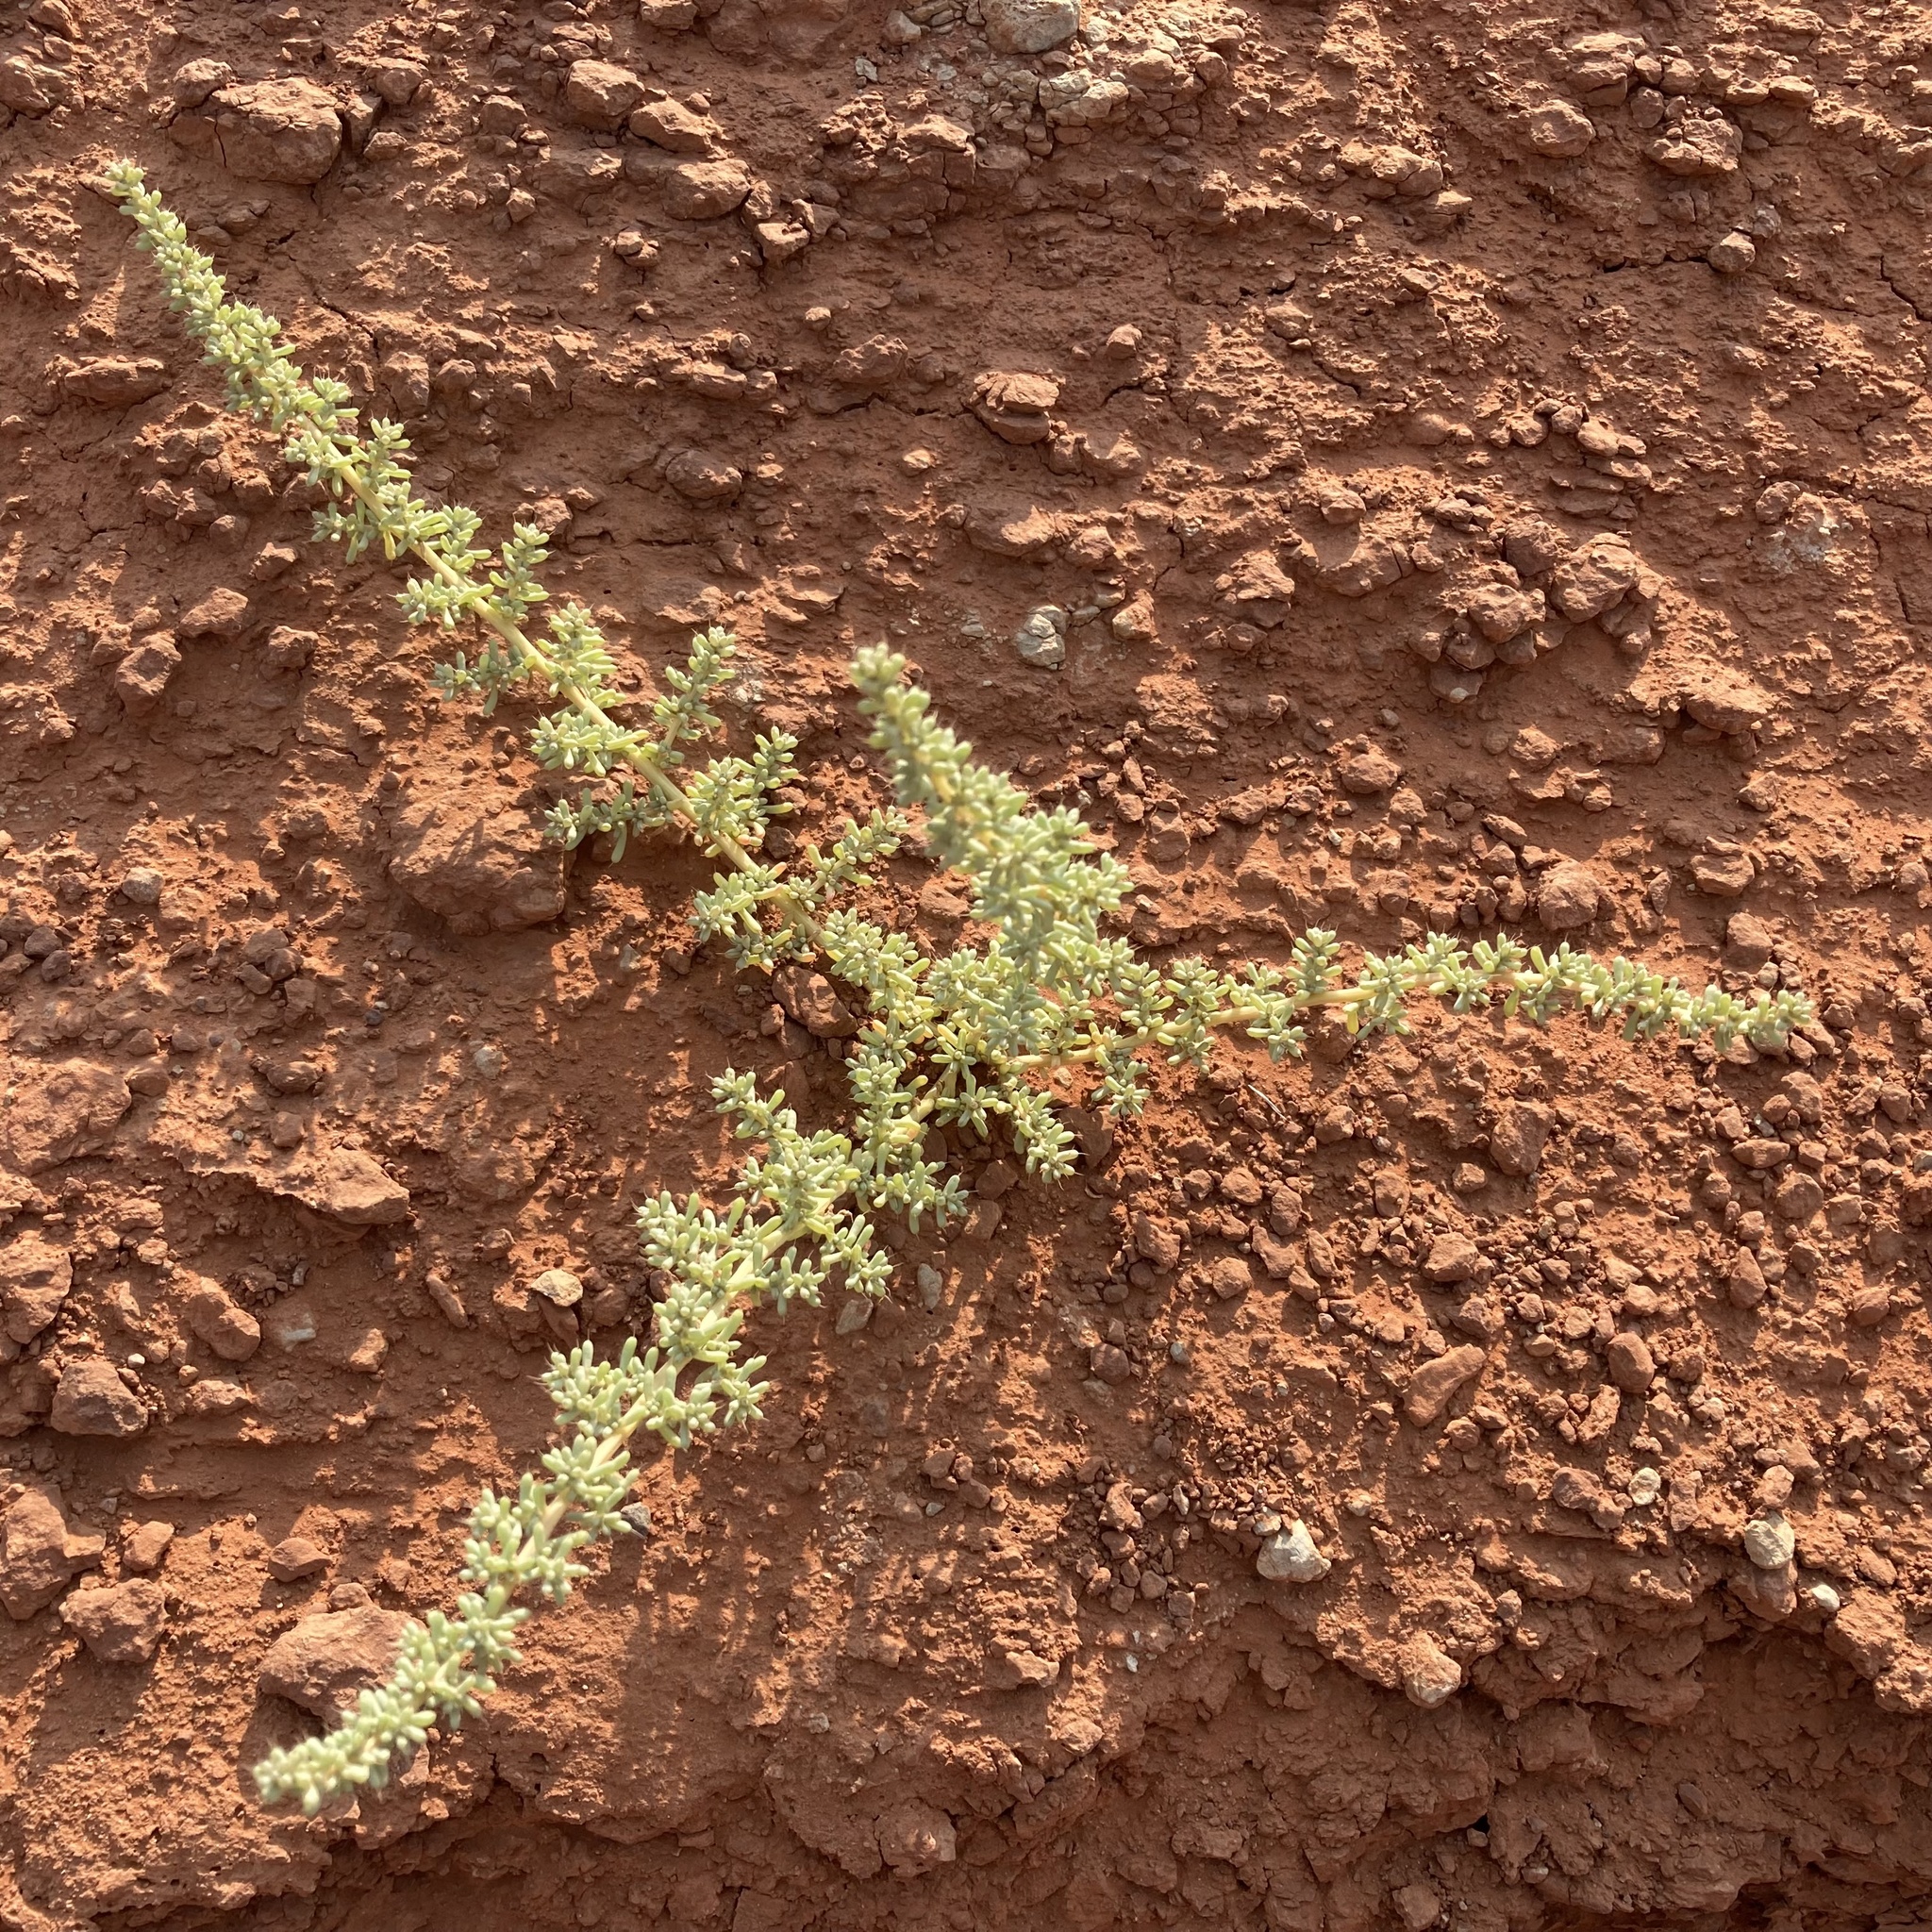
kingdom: Plantae
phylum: Tracheophyta
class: Magnoliopsida
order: Caryophyllales
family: Amaranthaceae
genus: Halogeton
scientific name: Halogeton glomeratus
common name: Saltlover
